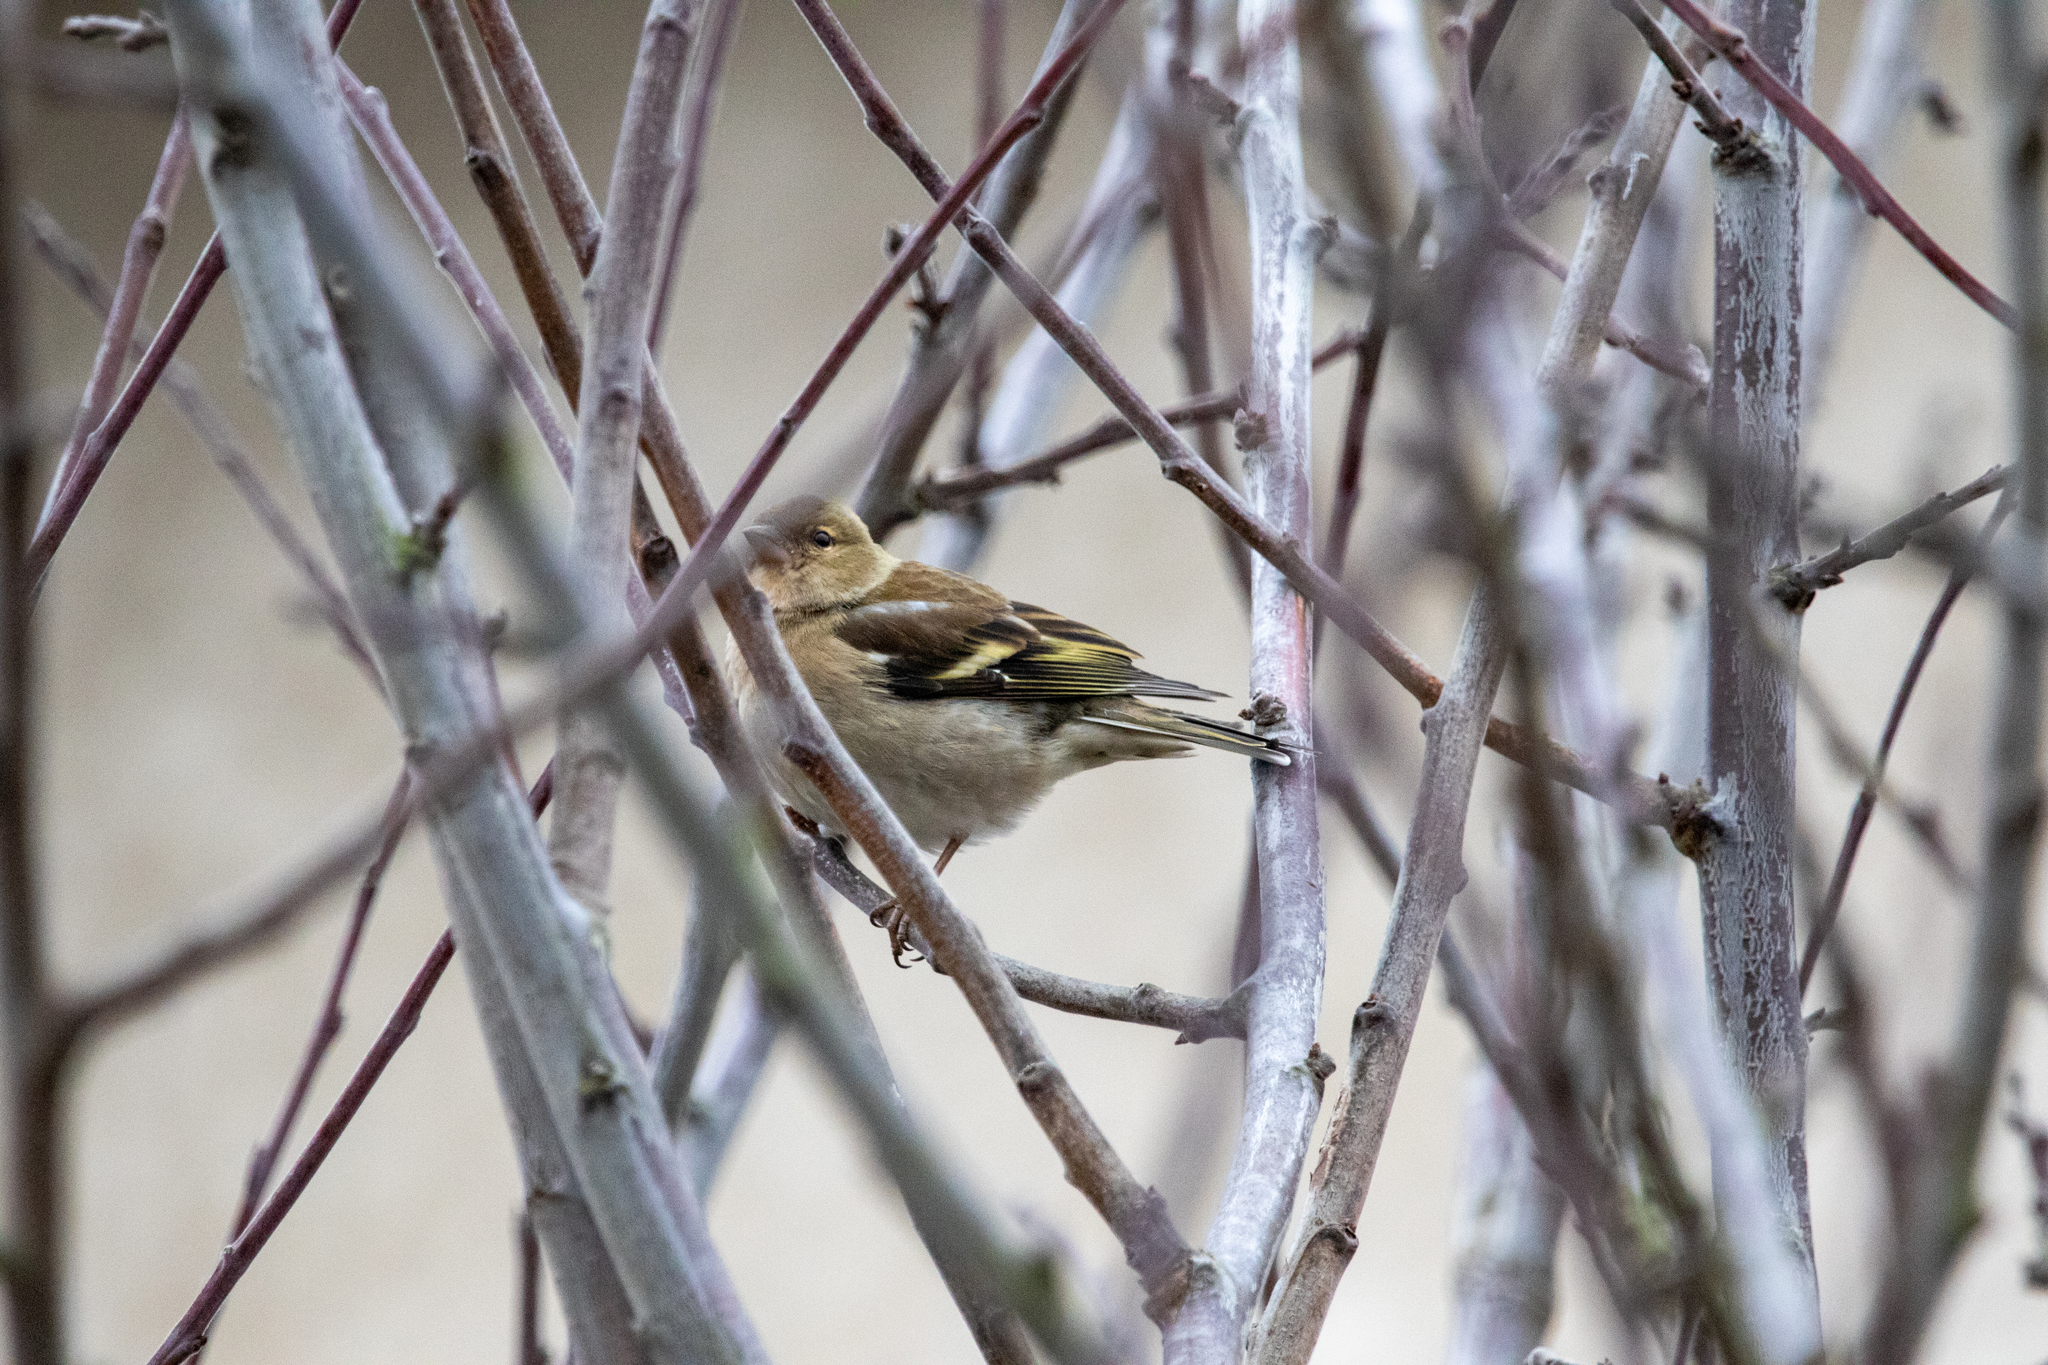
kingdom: Animalia
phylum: Chordata
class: Aves
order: Passeriformes
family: Fringillidae
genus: Fringilla
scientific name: Fringilla coelebs
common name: Common chaffinch
